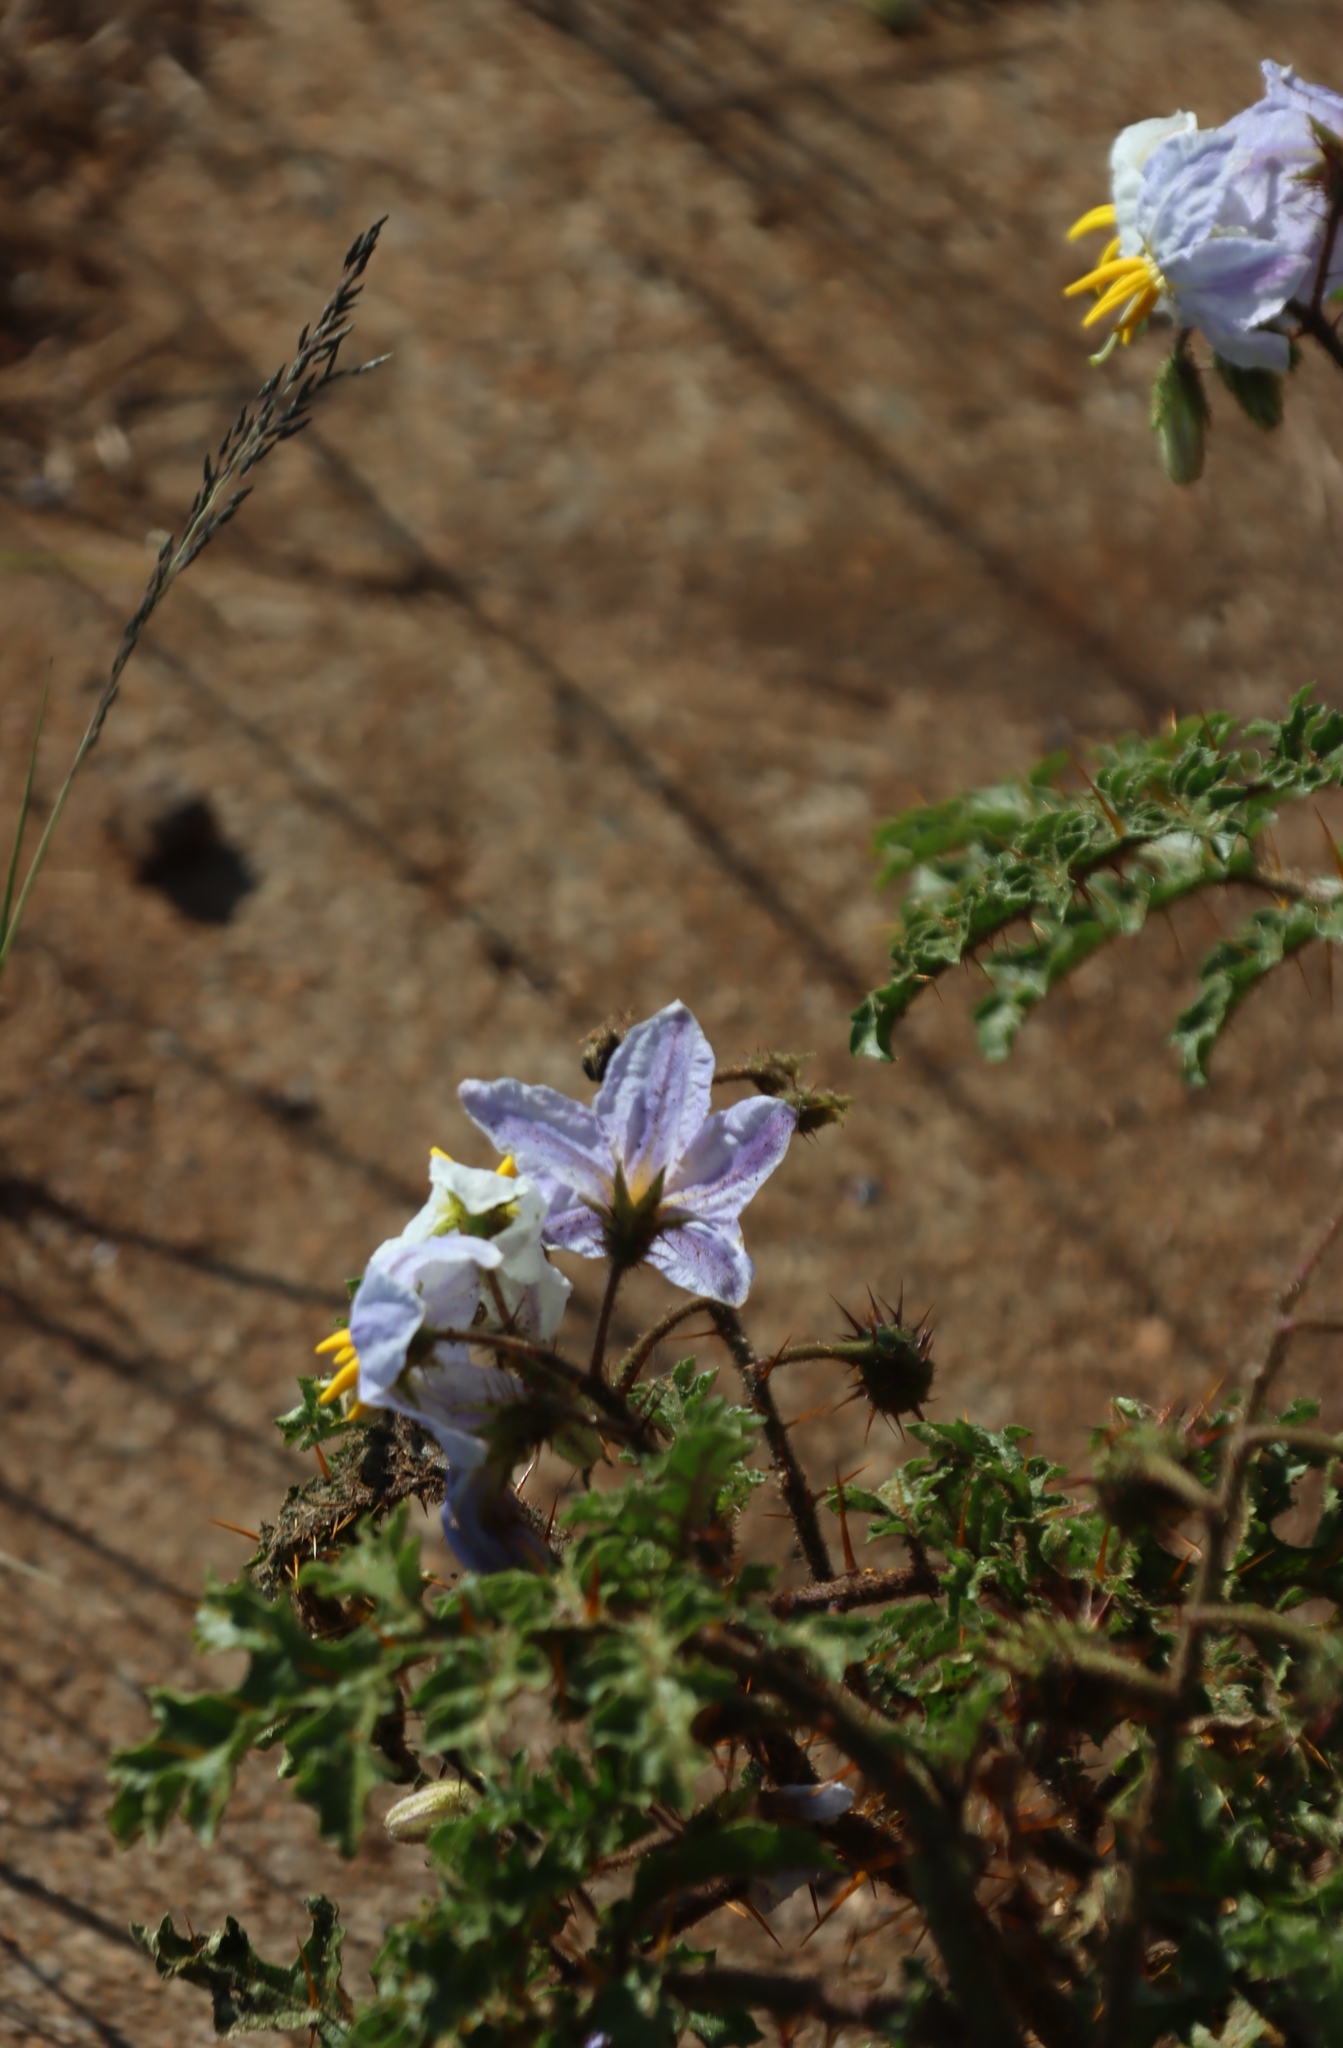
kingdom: Plantae
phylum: Tracheophyta
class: Magnoliopsida
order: Solanales
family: Solanaceae
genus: Solanum
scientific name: Solanum sisymbriifolium
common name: Red buffalo-bur
